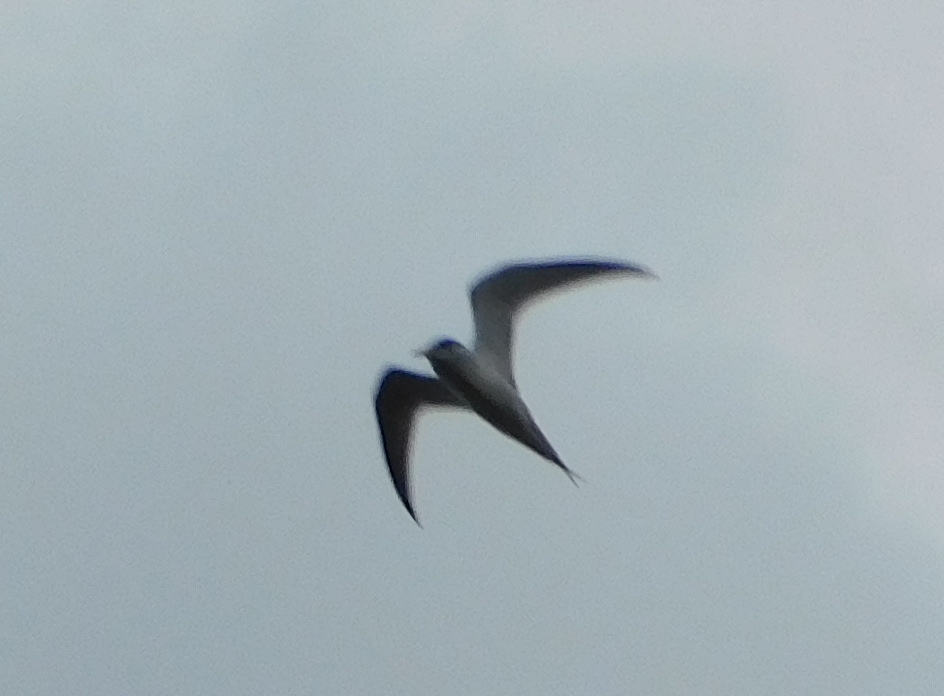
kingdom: Animalia
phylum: Chordata
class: Aves
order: Charadriiformes
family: Laridae
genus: Sternula
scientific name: Sternula antillarum
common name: Least tern
